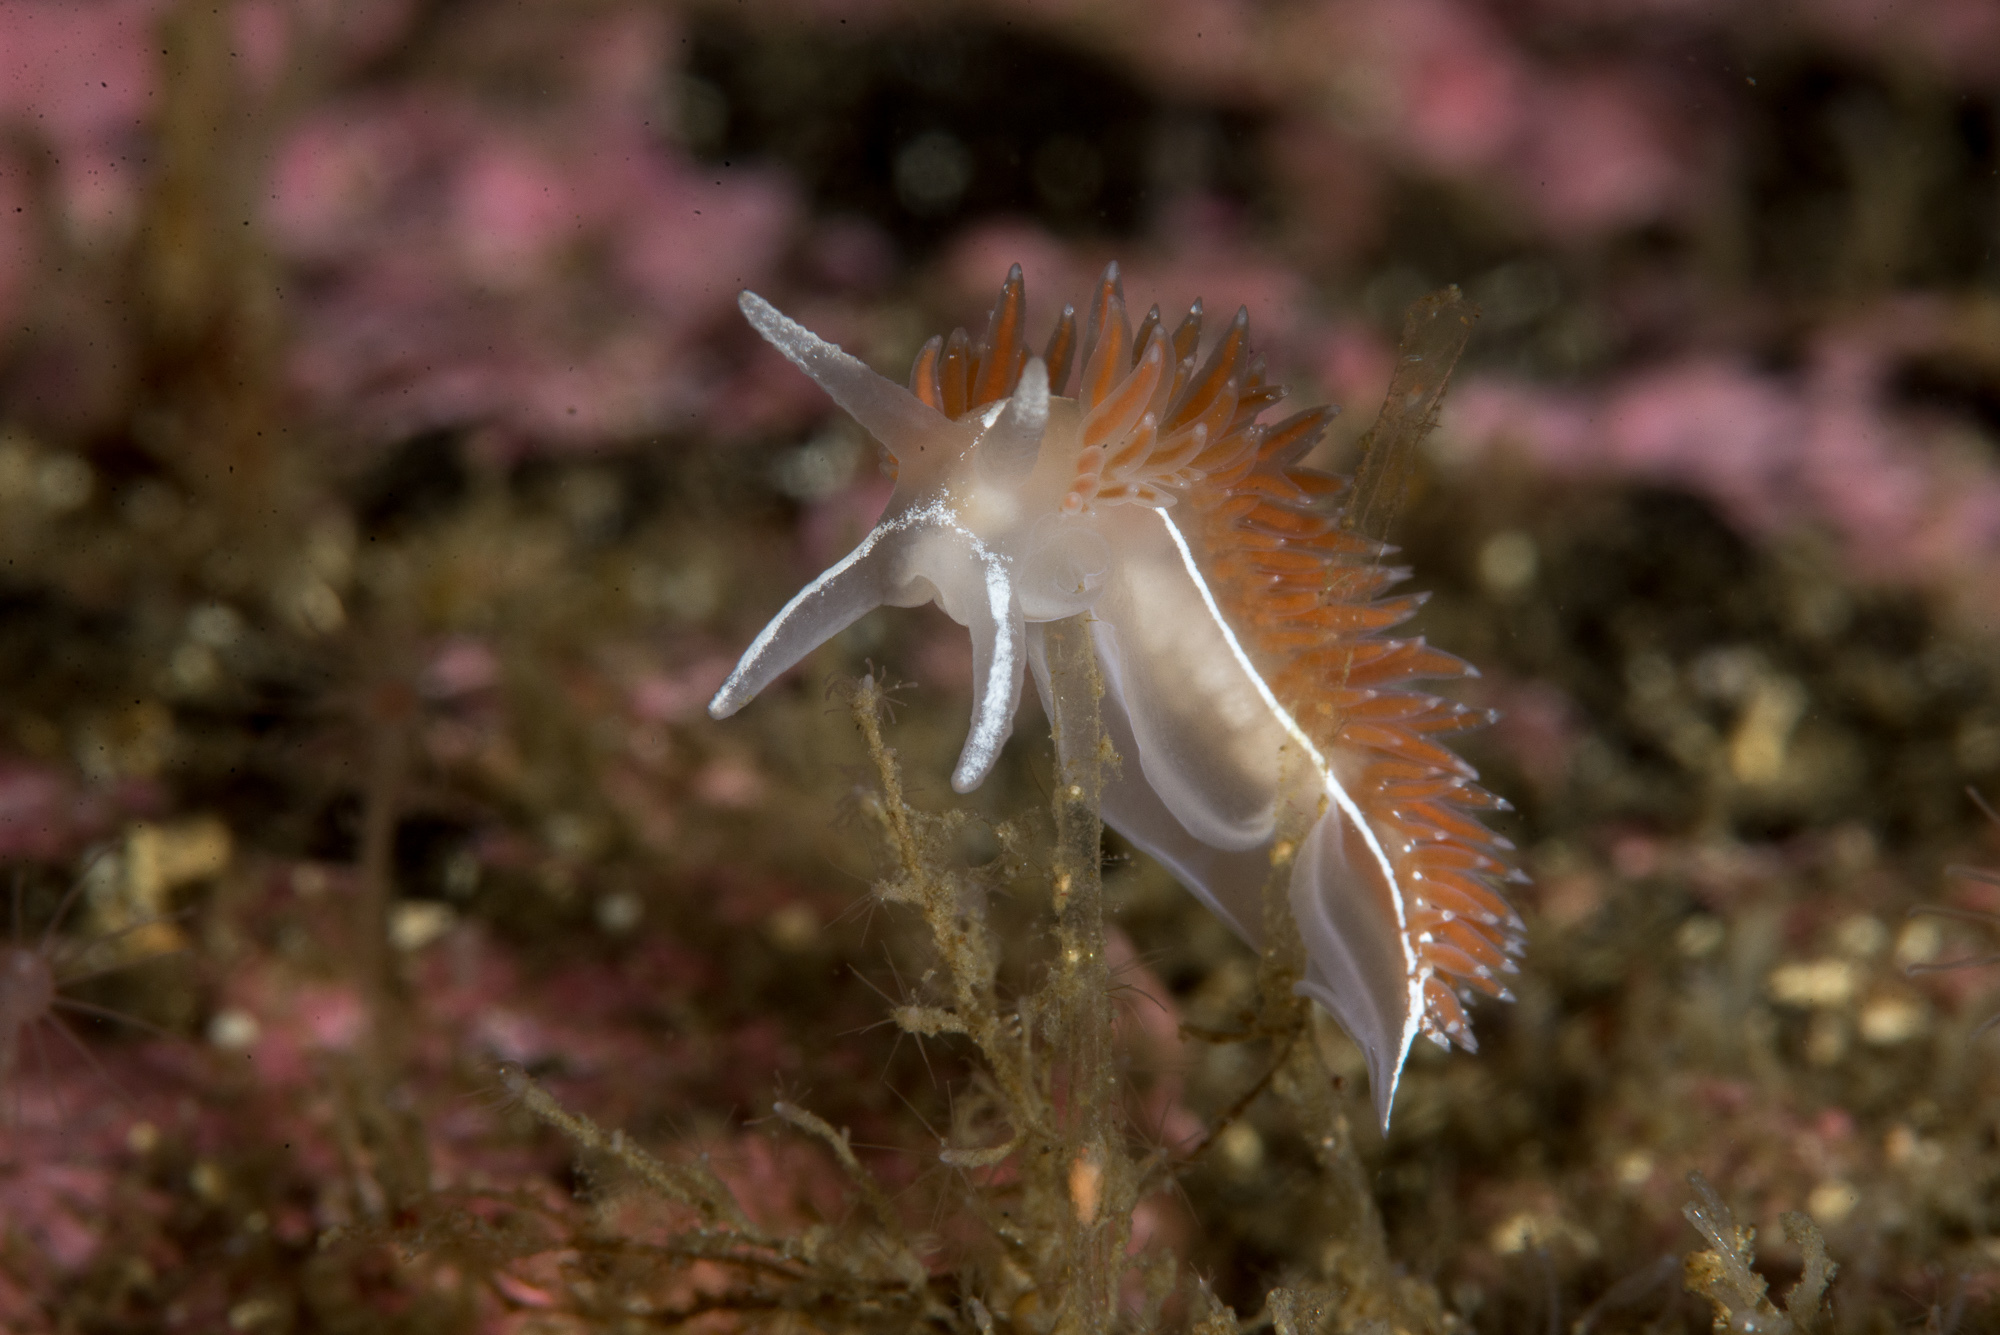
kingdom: Animalia
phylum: Mollusca
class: Gastropoda
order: Nudibranchia
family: Coryphellidae
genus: Coryphella
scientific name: Coryphella monicae
